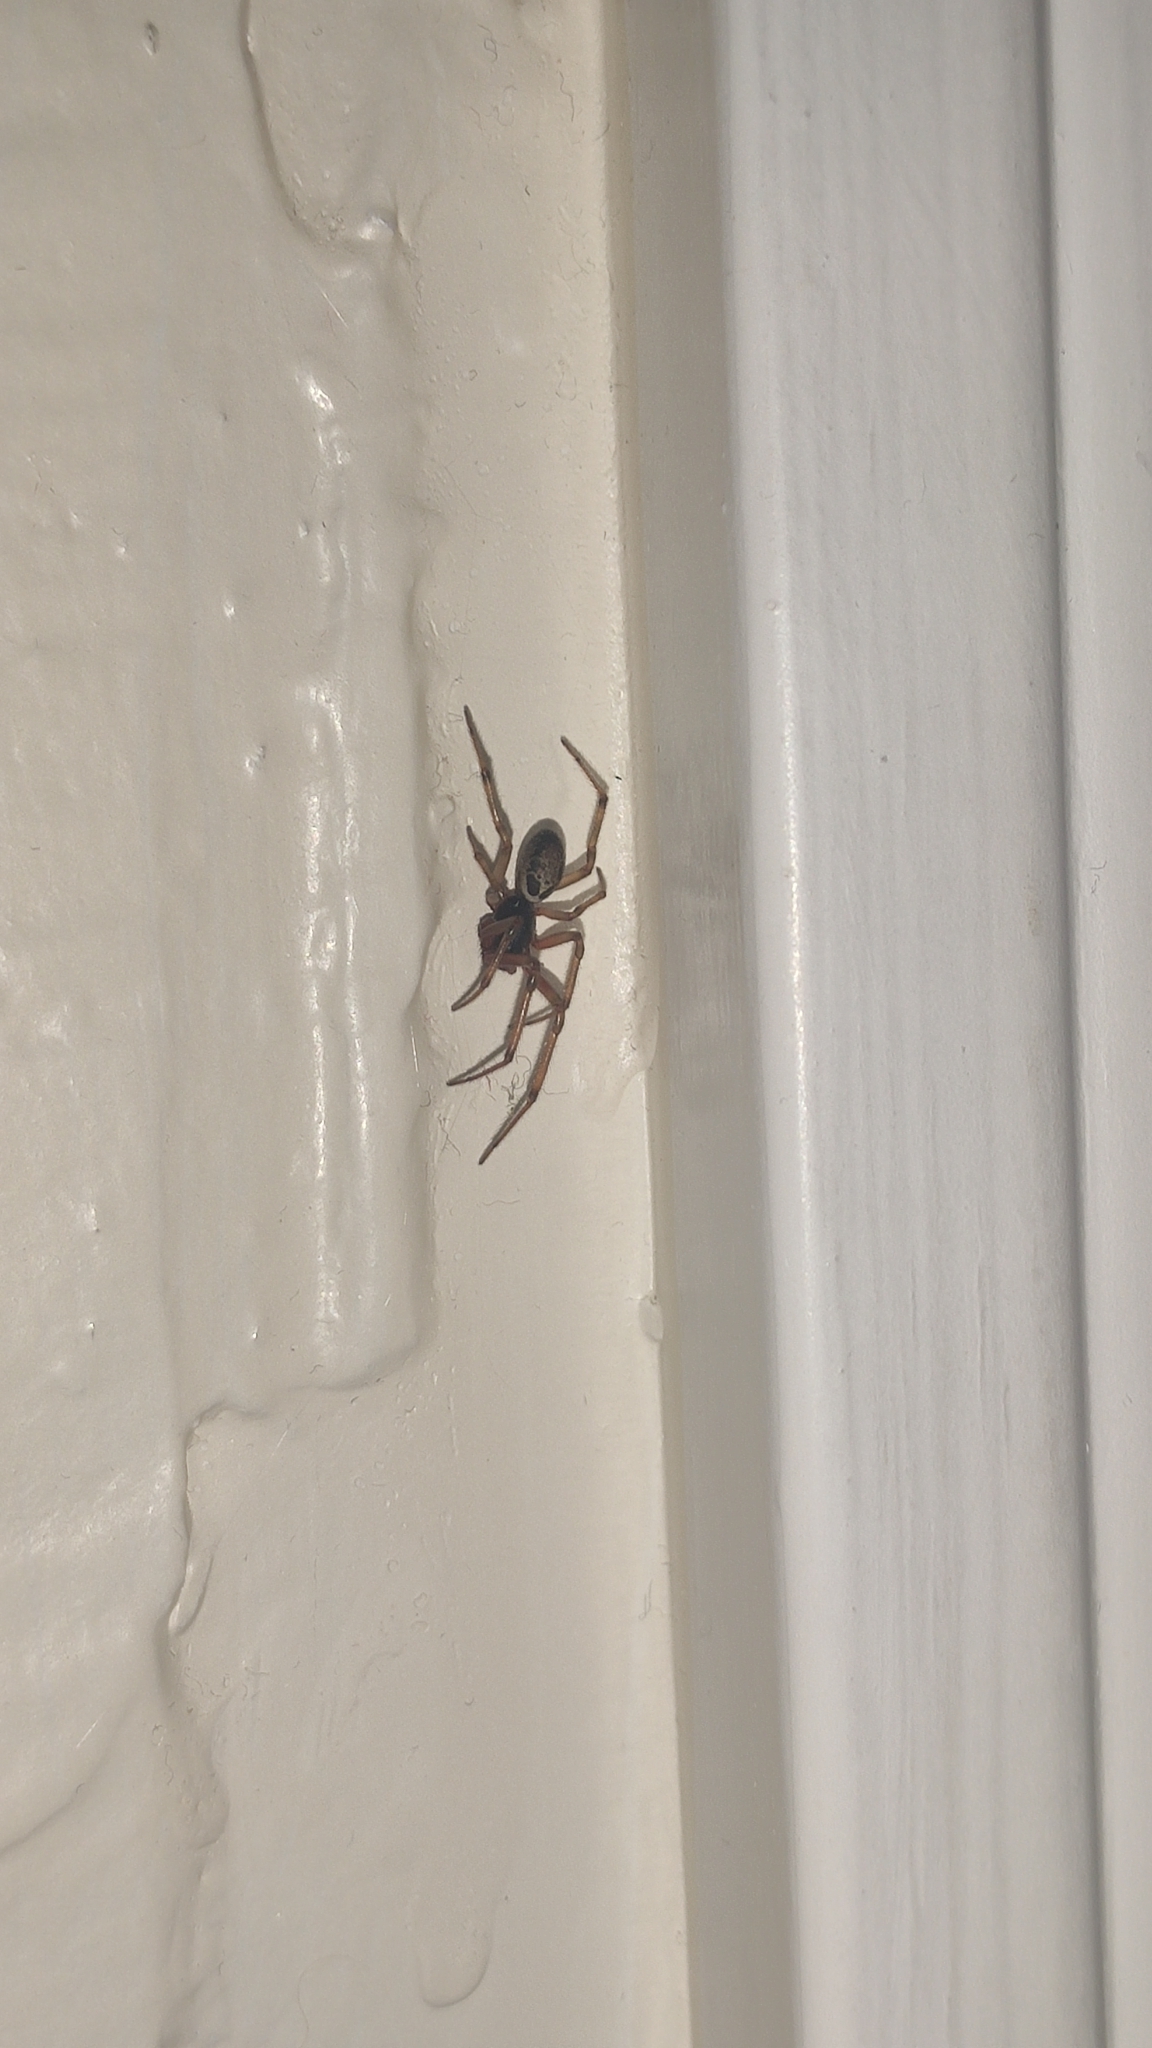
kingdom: Animalia
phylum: Arthropoda
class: Arachnida
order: Araneae
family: Theridiidae
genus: Steatoda
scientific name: Steatoda nobilis
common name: Cobweb weaver
